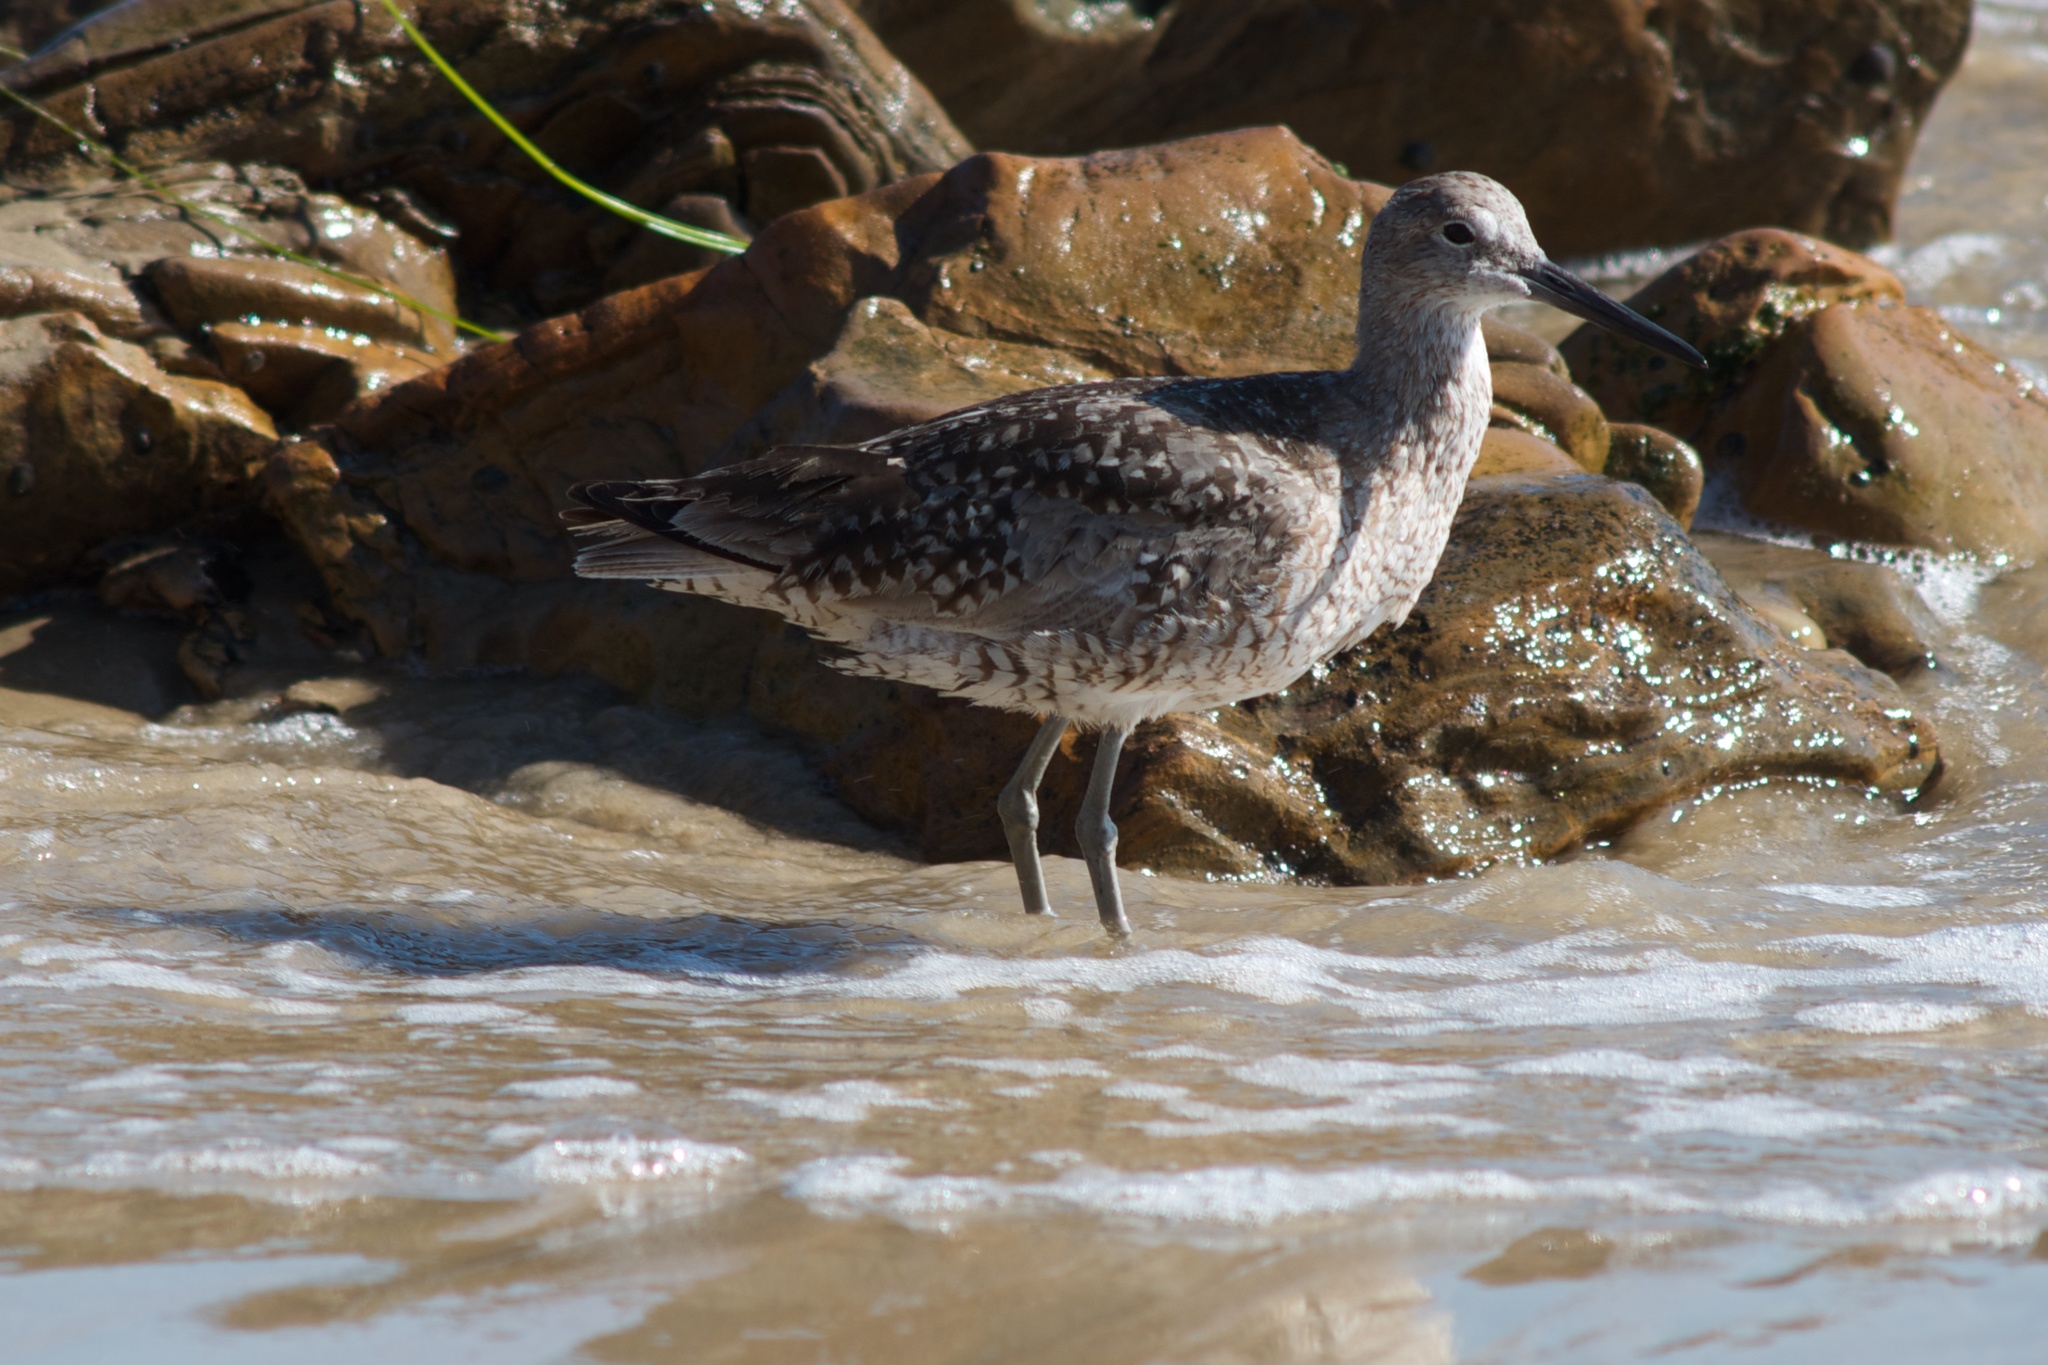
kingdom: Animalia
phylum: Chordata
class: Aves
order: Charadriiformes
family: Scolopacidae
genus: Tringa
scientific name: Tringa semipalmata
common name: Willet
